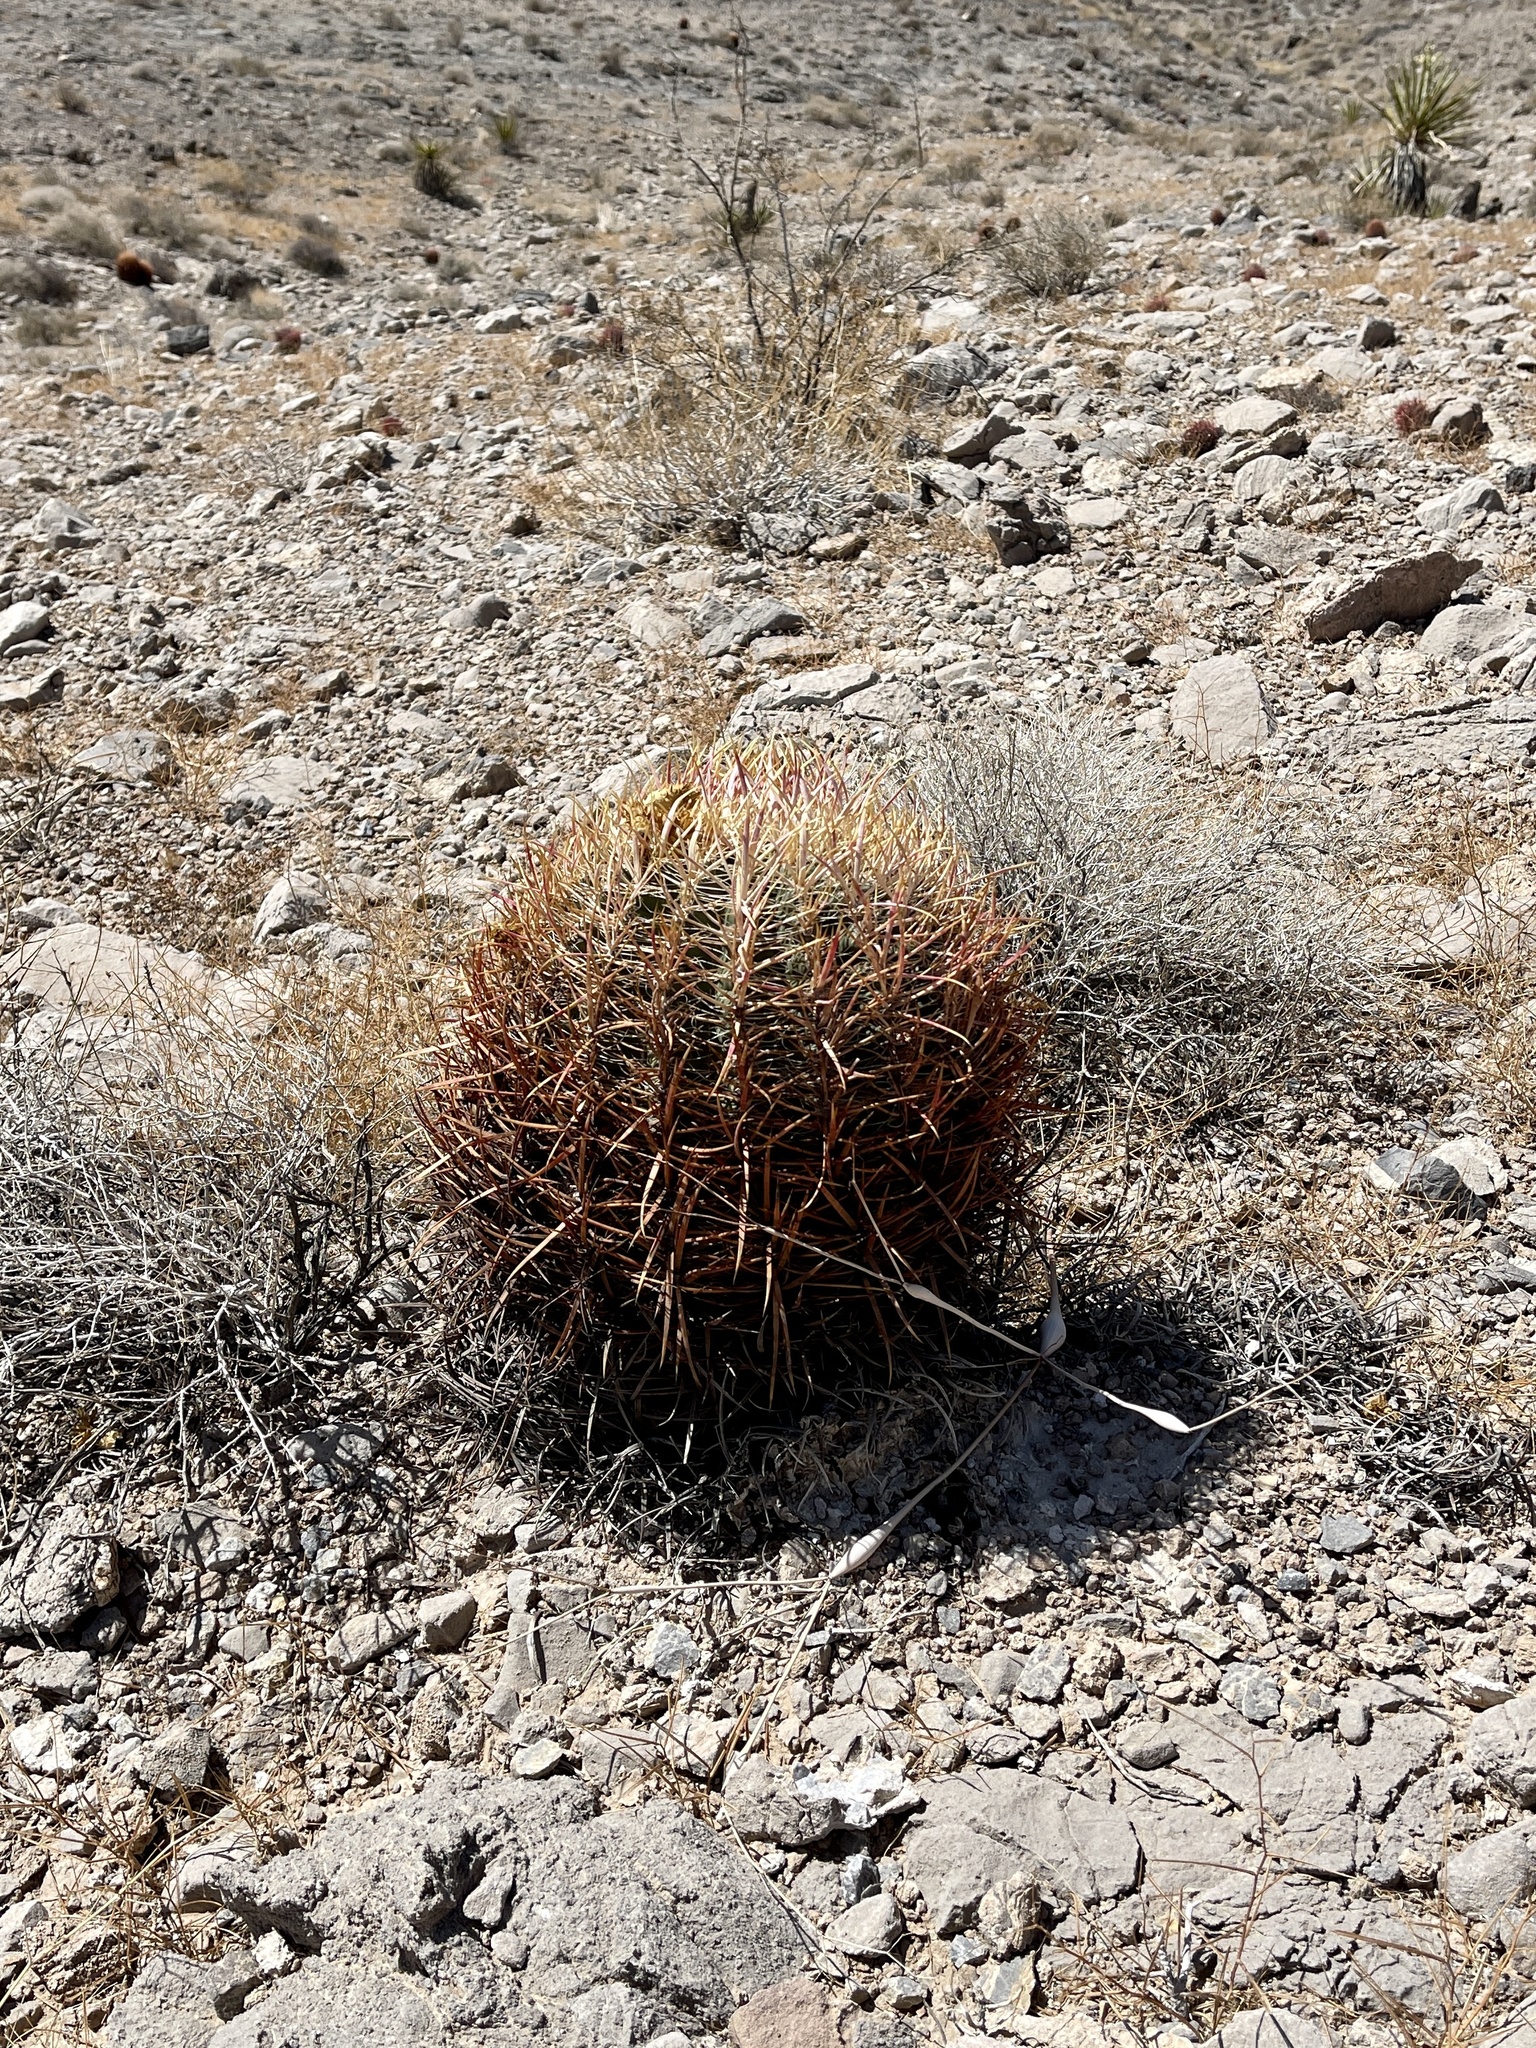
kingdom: Plantae
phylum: Tracheophyta
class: Magnoliopsida
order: Caryophyllales
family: Cactaceae
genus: Ferocactus
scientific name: Ferocactus cylindraceus
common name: California barrel cactus
